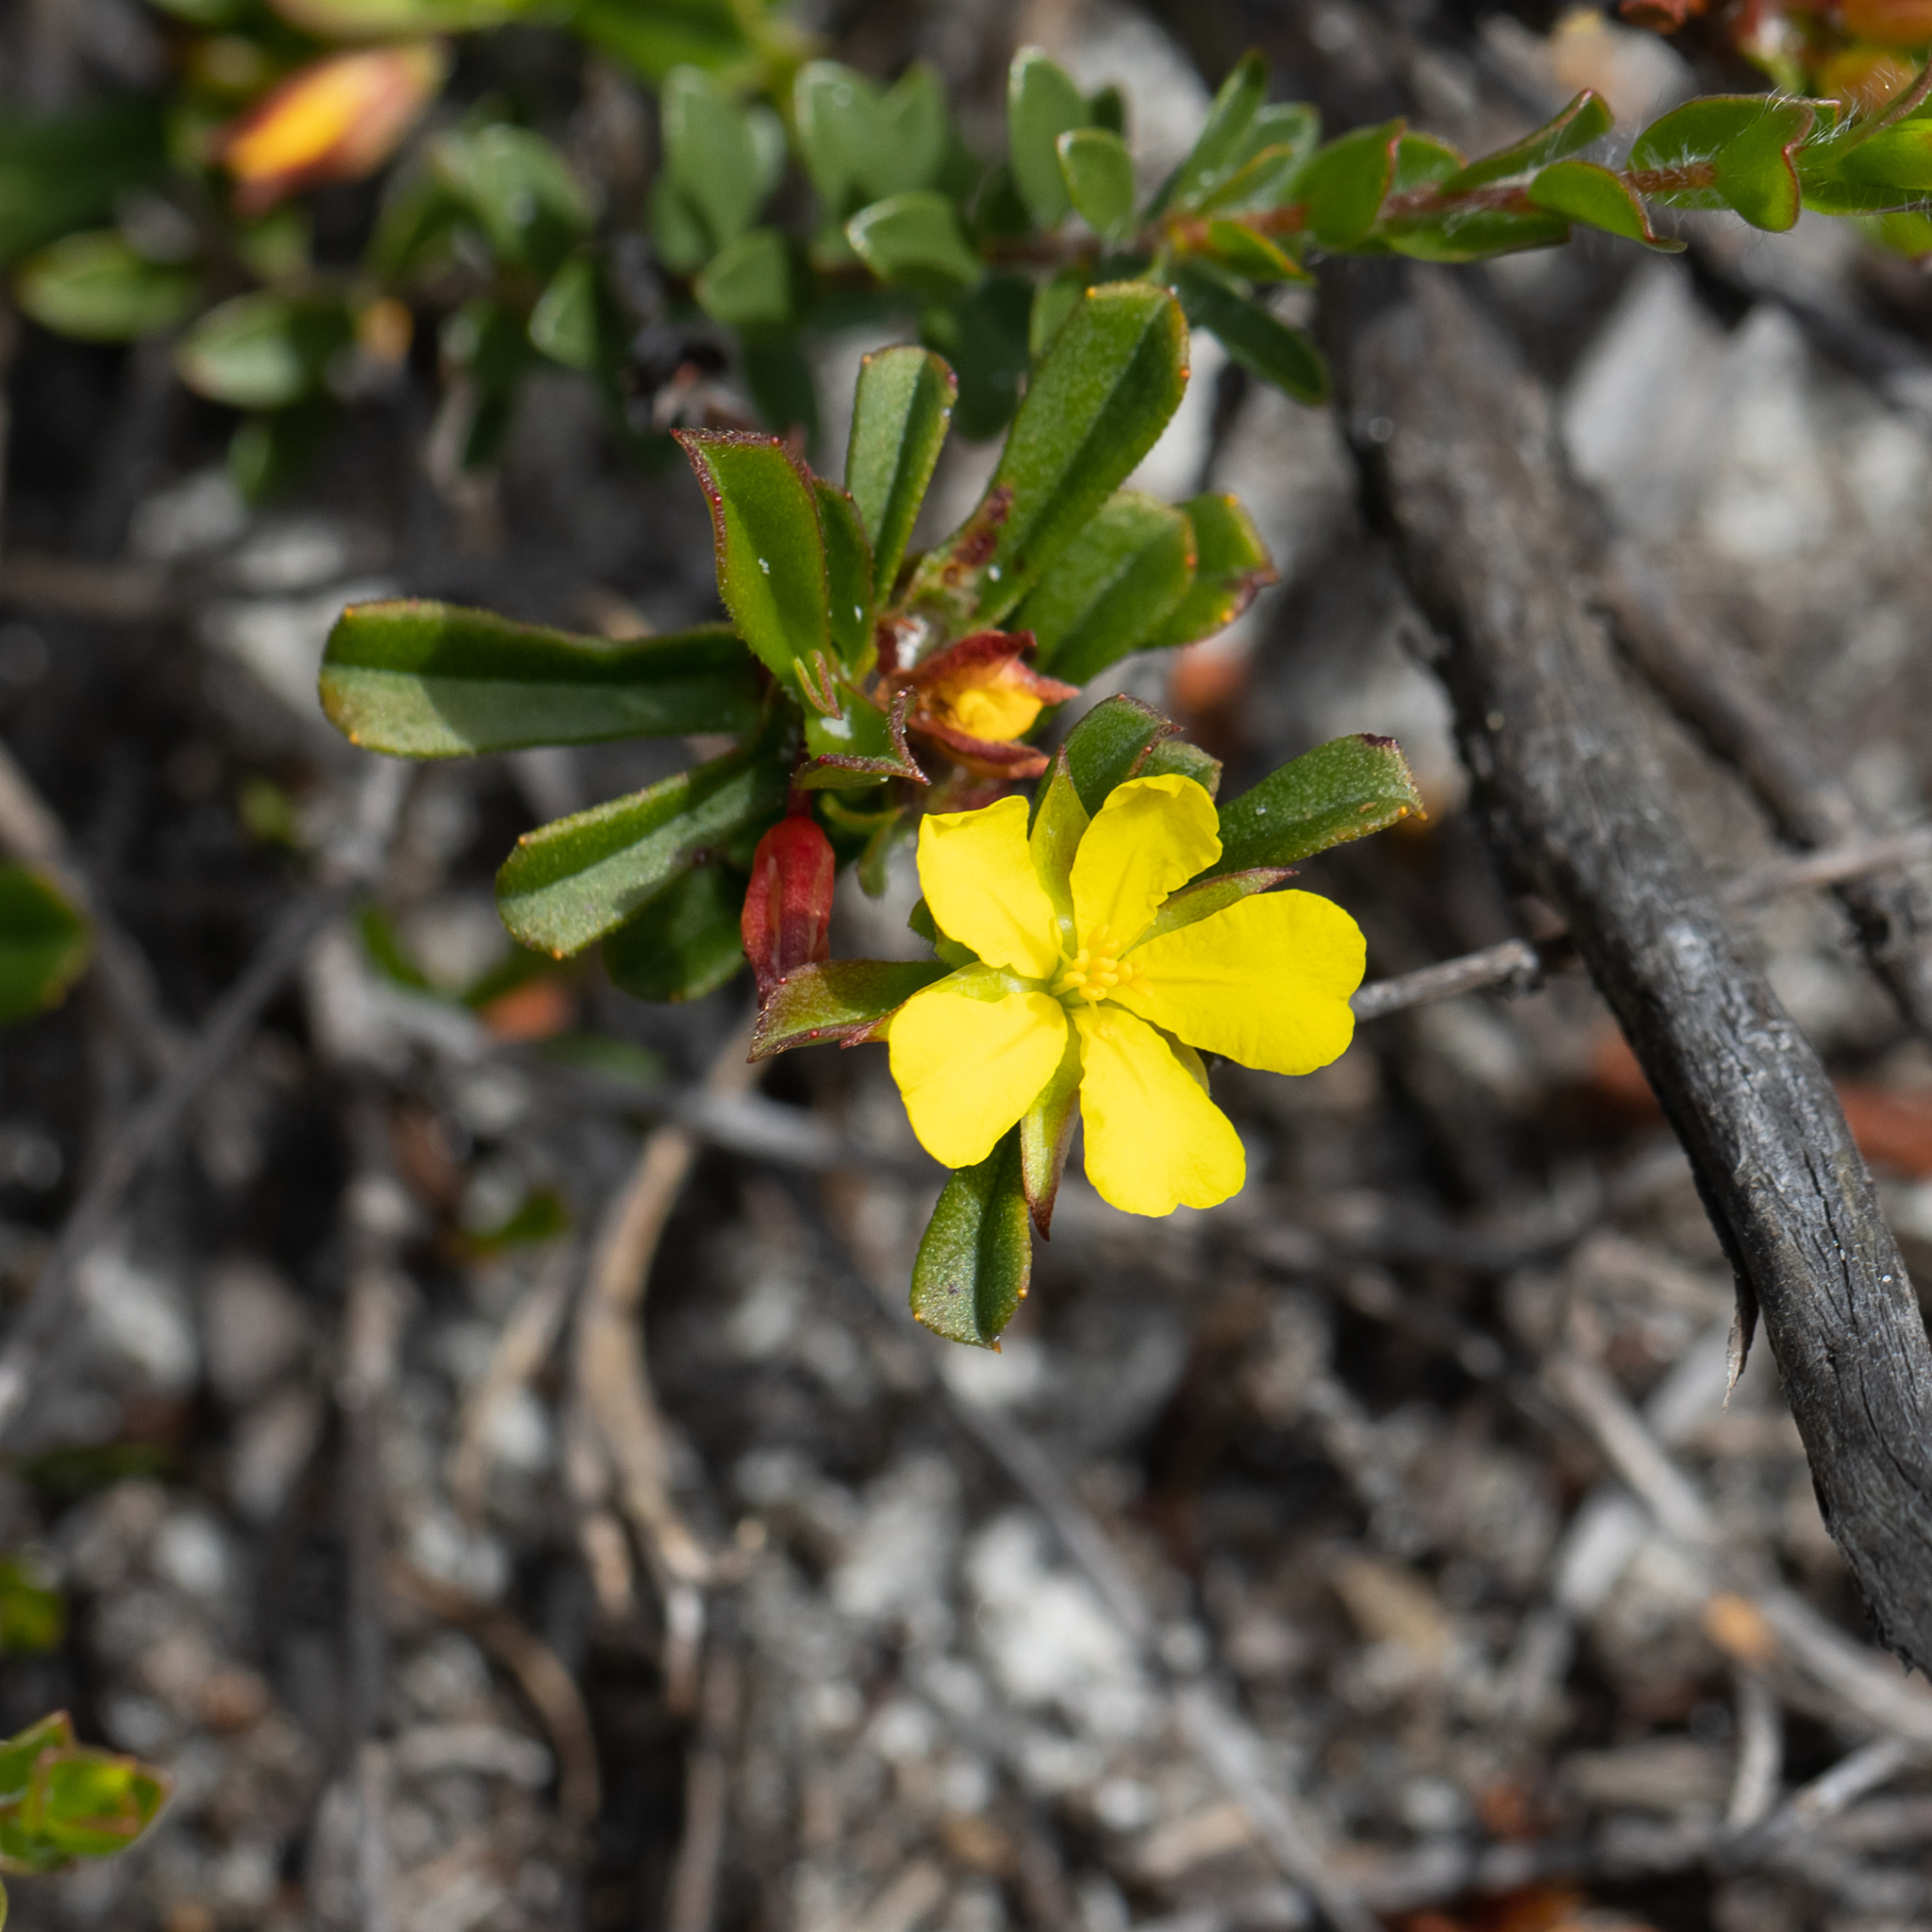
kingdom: Plantae
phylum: Tracheophyta
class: Magnoliopsida
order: Dilleniales
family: Dilleniaceae
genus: Hibbertia
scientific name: Hibbertia racemosa
